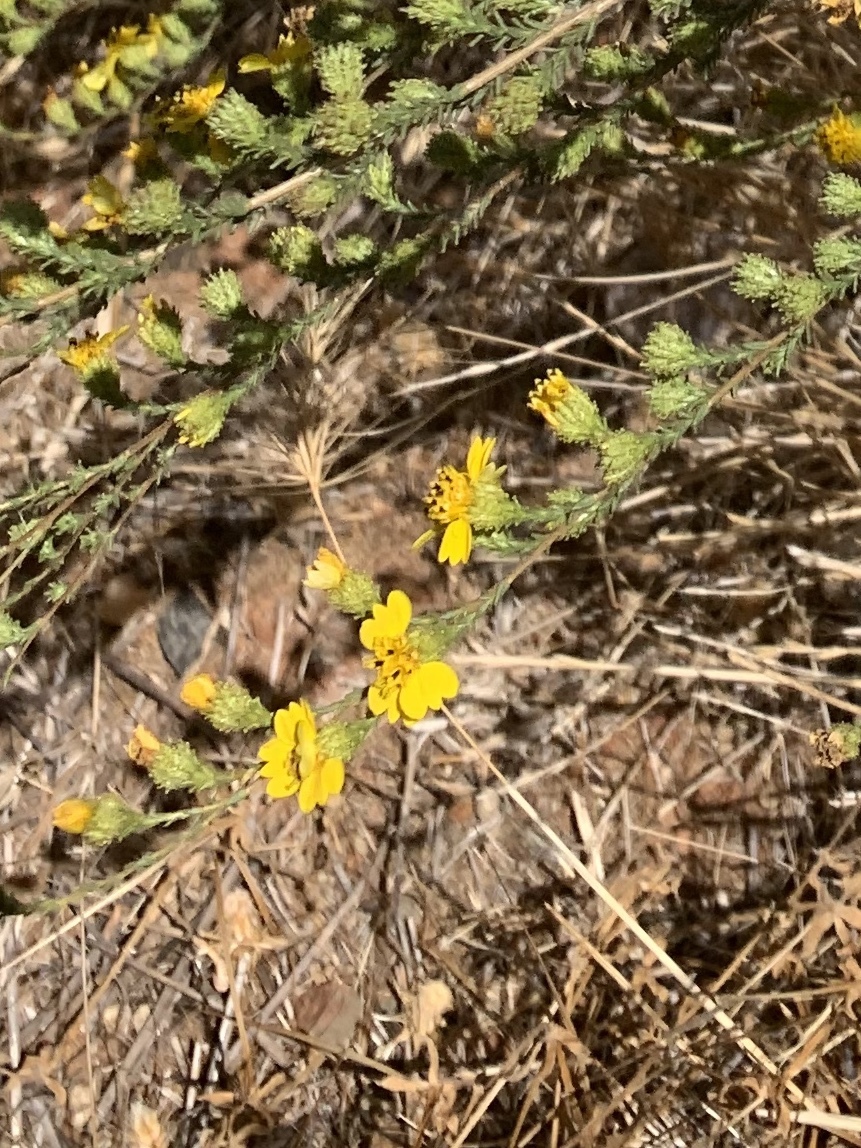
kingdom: Plantae
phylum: Tracheophyta
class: Magnoliopsida
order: Asterales
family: Asteraceae
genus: Holocarpha
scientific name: Holocarpha virgata
